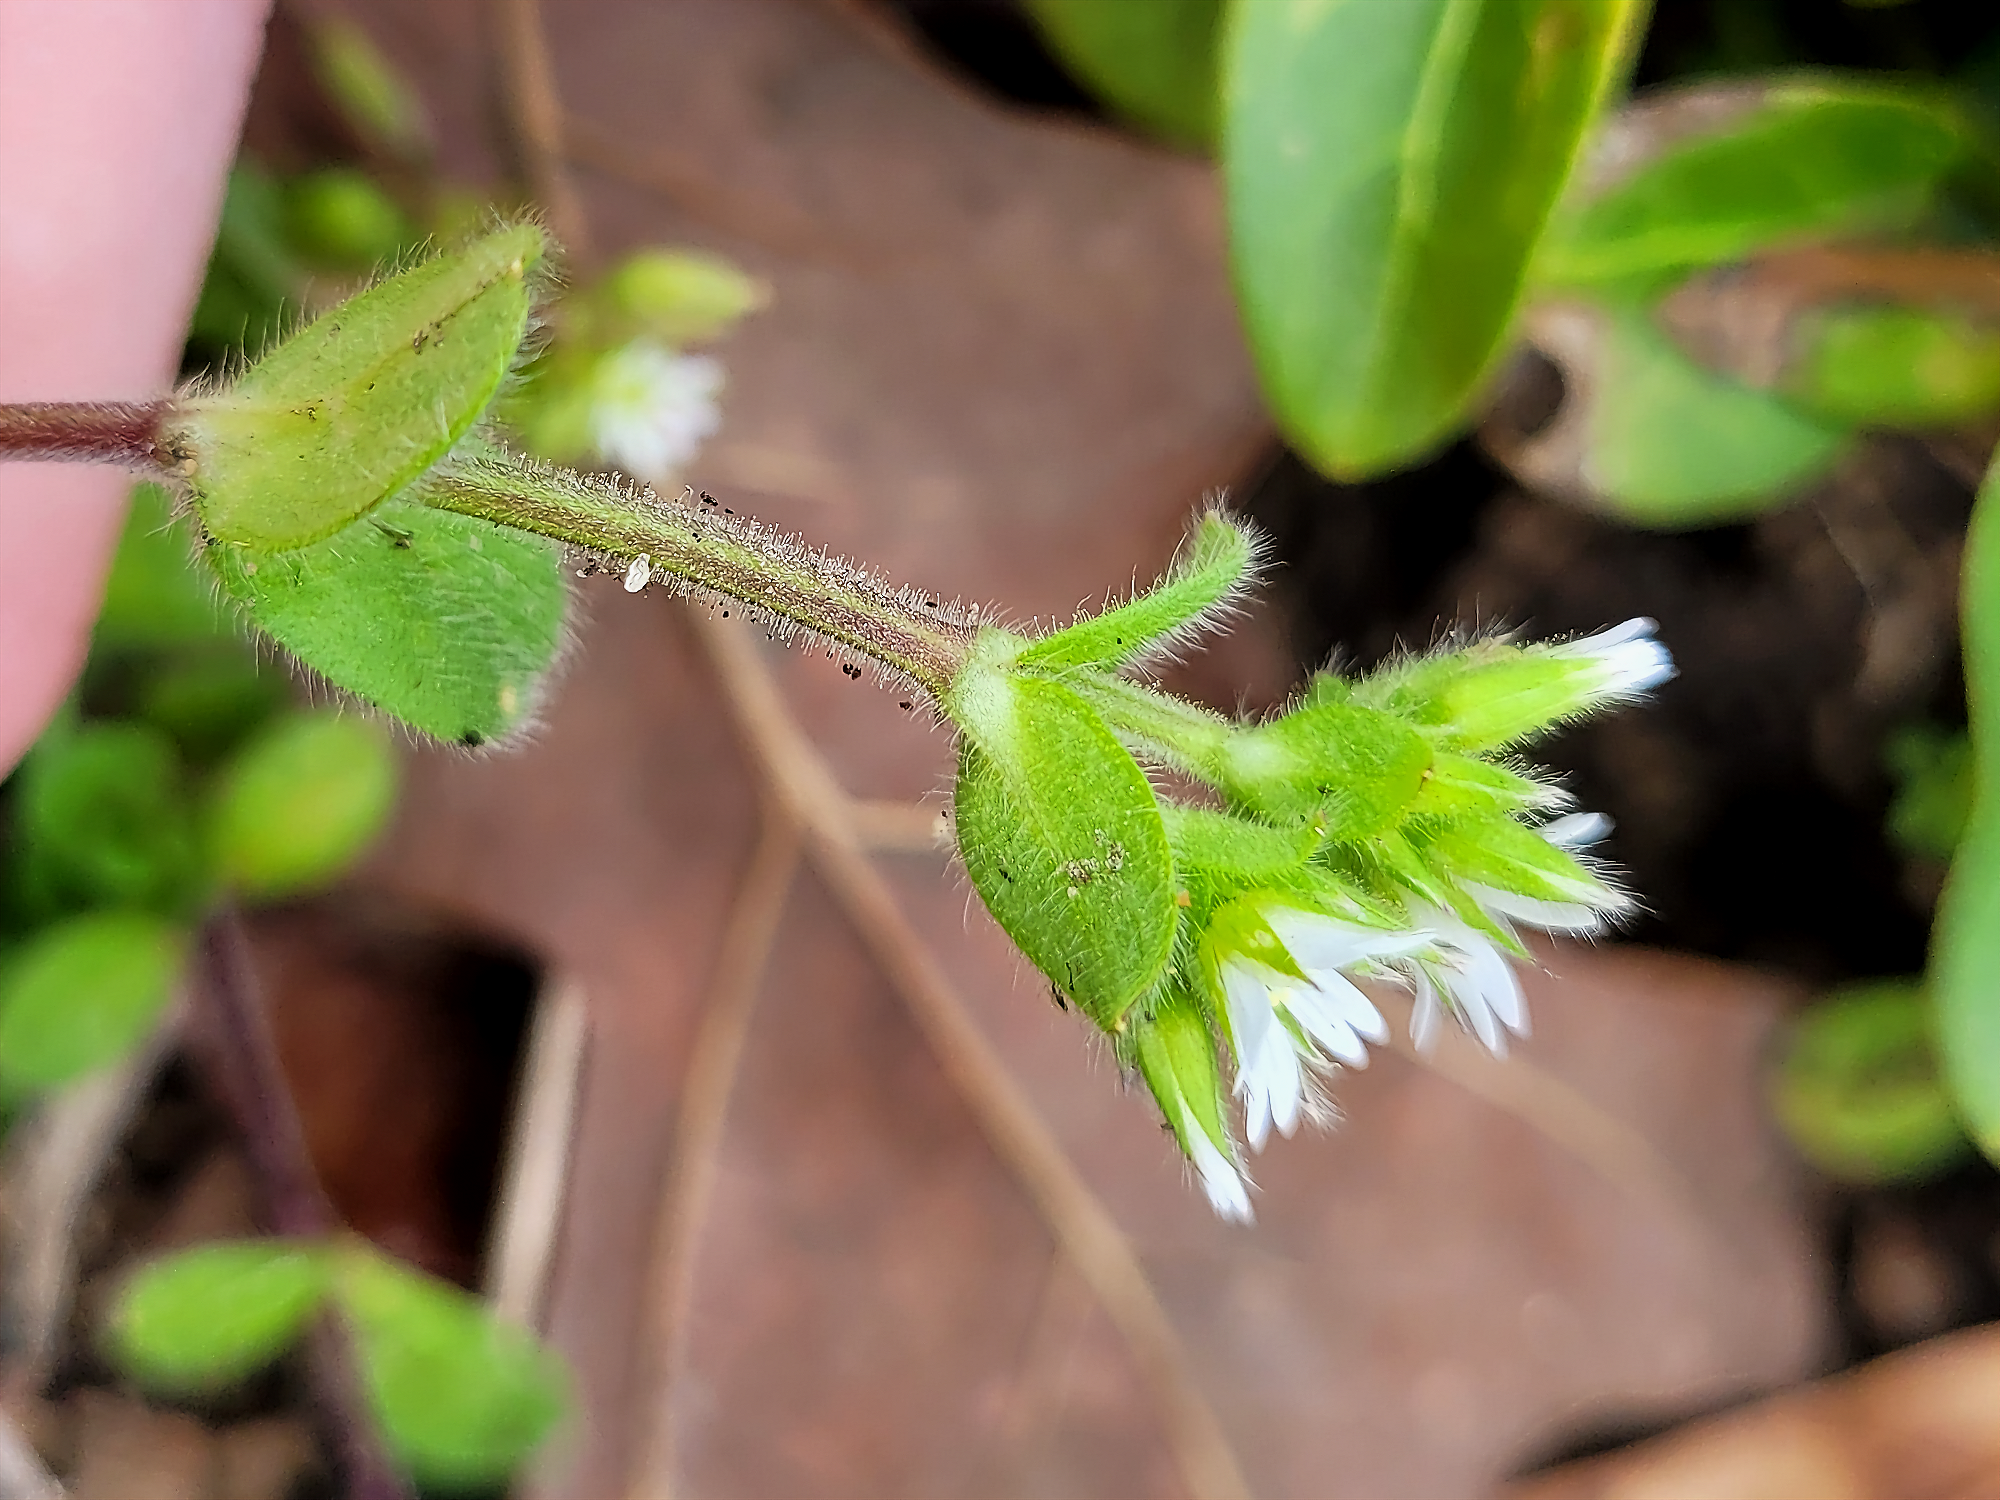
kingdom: Plantae
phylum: Tracheophyta
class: Magnoliopsida
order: Caryophyllales
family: Caryophyllaceae
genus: Cerastium
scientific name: Cerastium glomeratum
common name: Sticky chickweed
